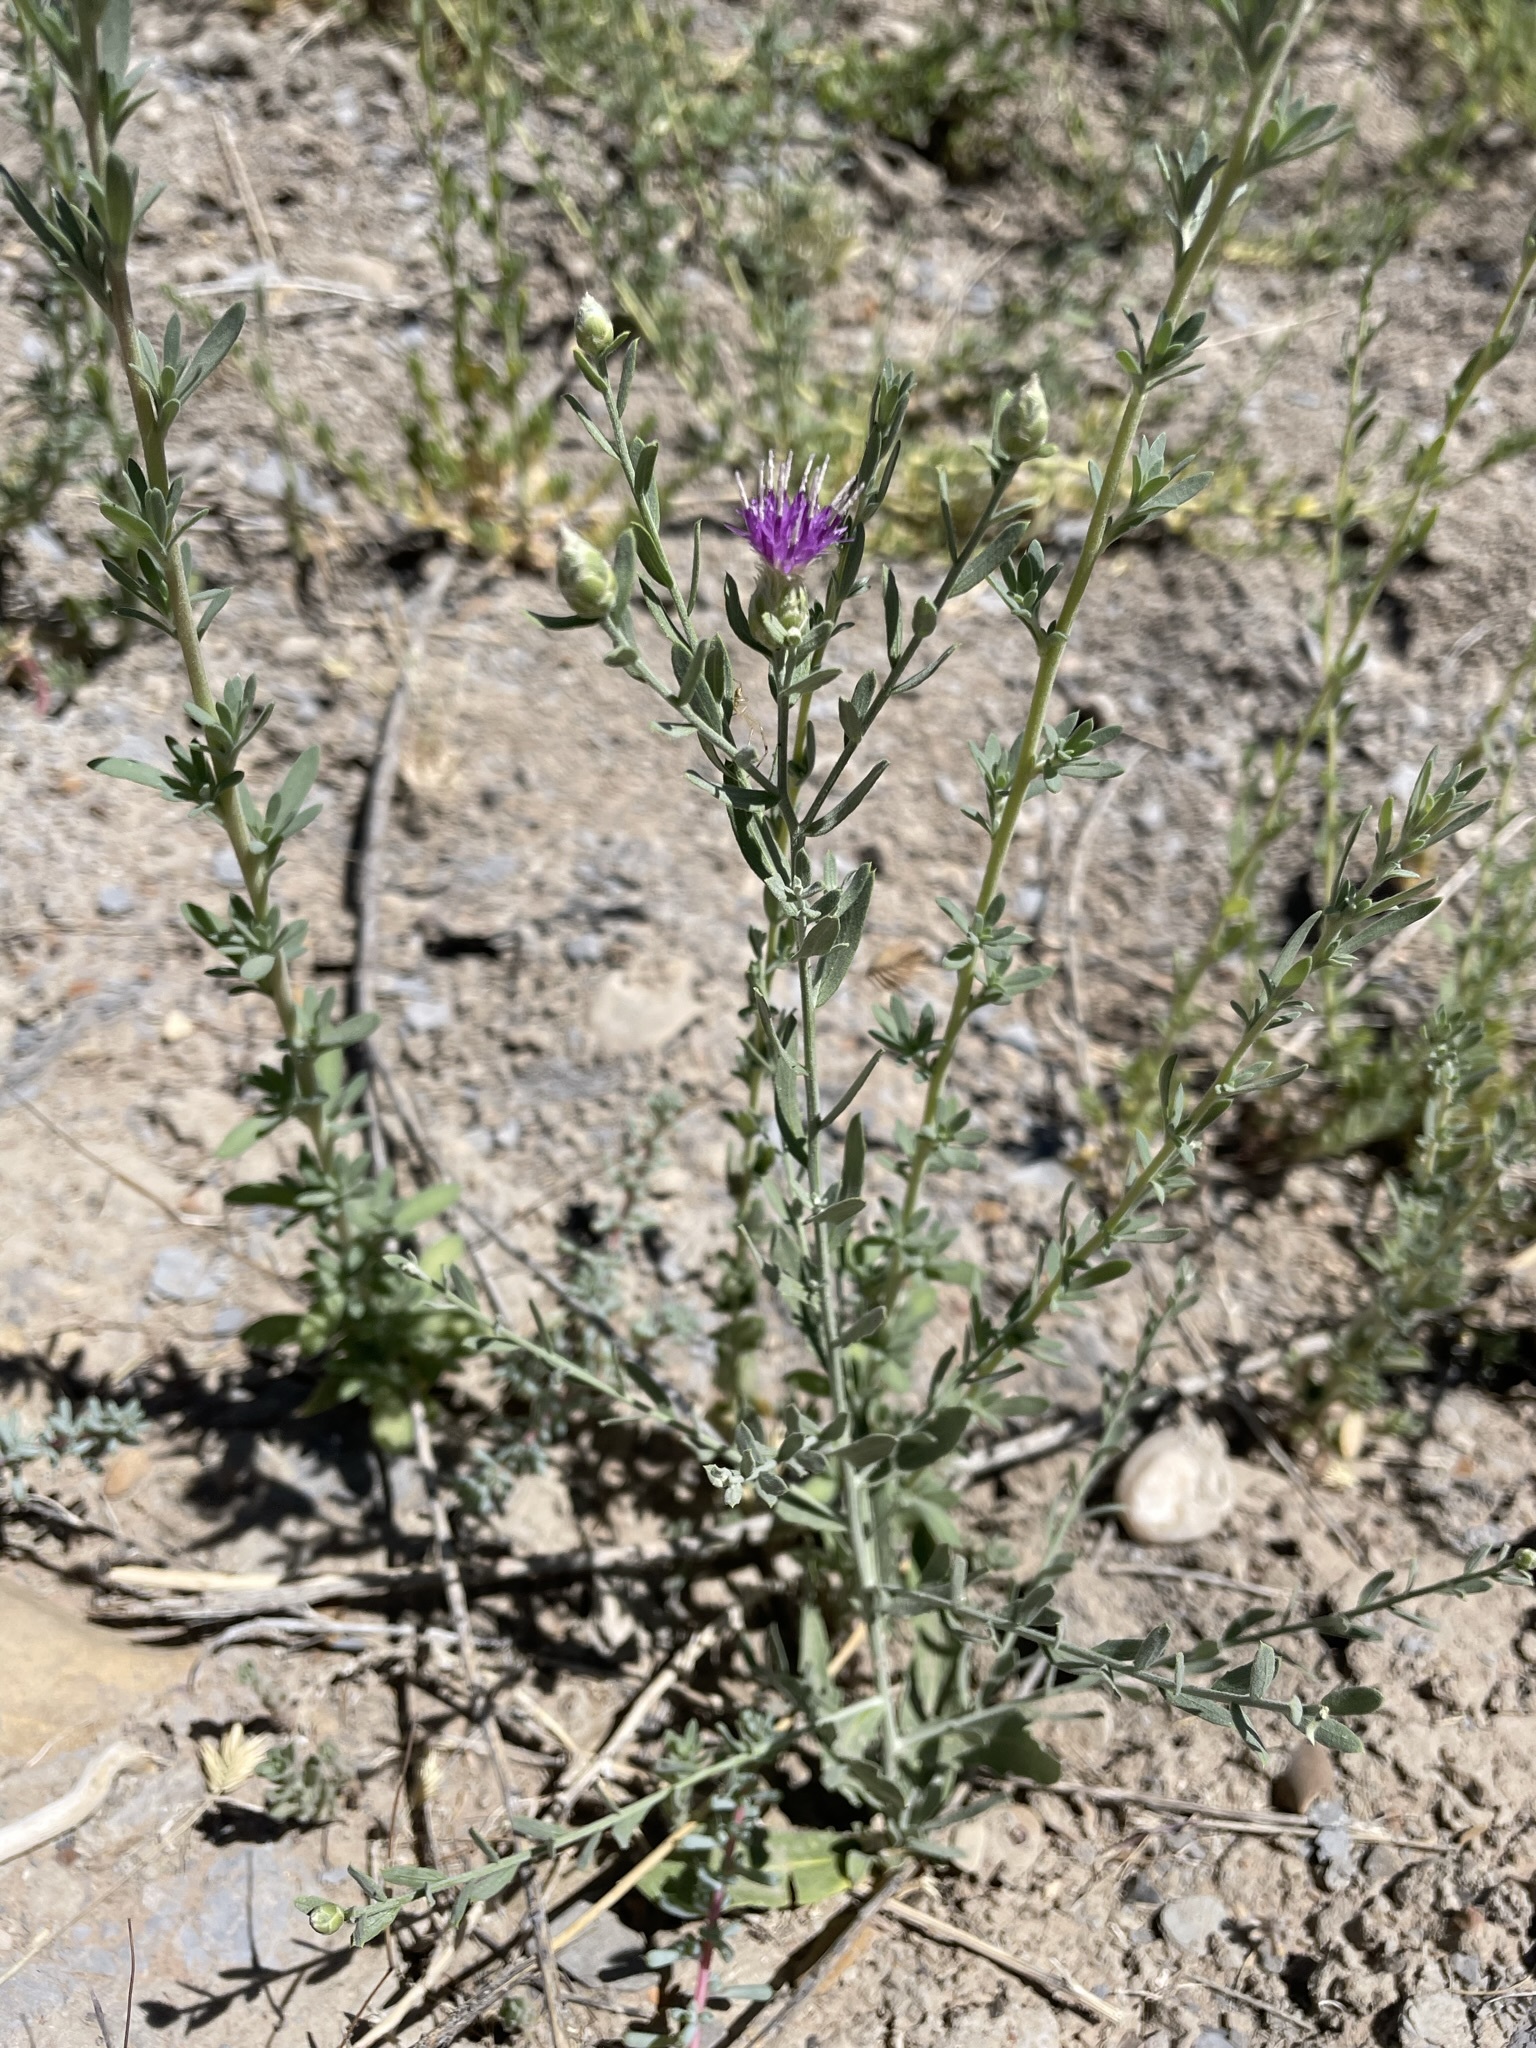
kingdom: Plantae
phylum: Tracheophyta
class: Magnoliopsida
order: Asterales
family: Asteraceae
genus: Leuzea
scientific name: Leuzea repens
